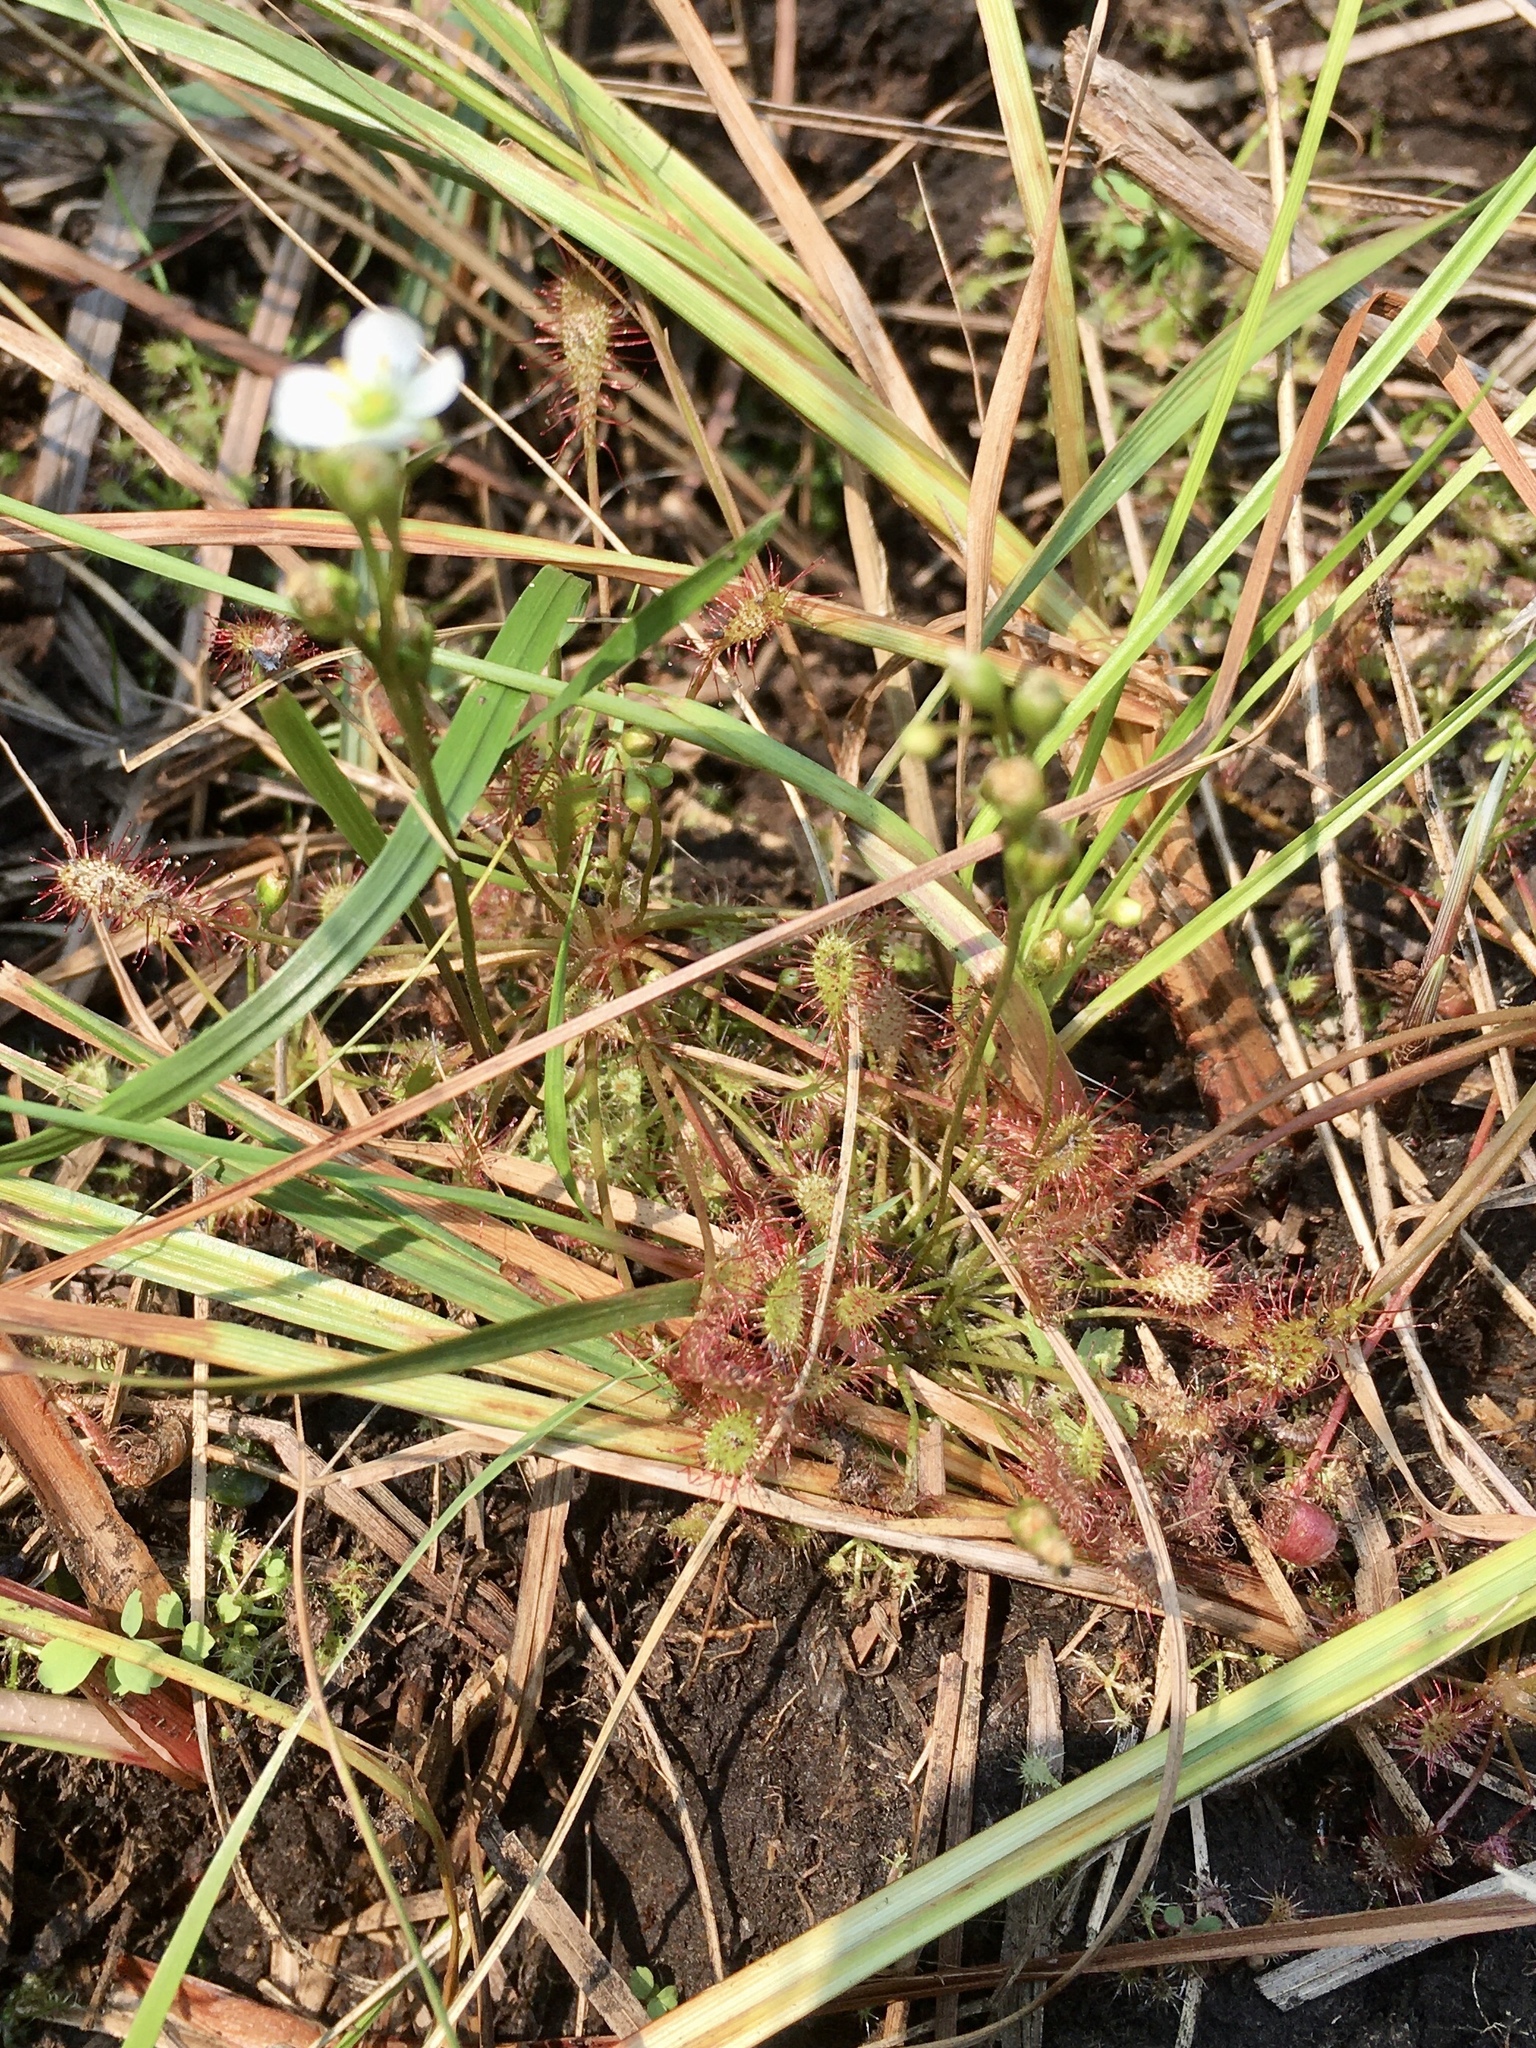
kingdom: Plantae
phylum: Tracheophyta
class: Magnoliopsida
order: Caryophyllales
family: Droseraceae
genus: Drosera
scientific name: Drosera intermedia
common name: Oblong-leaved sundew
